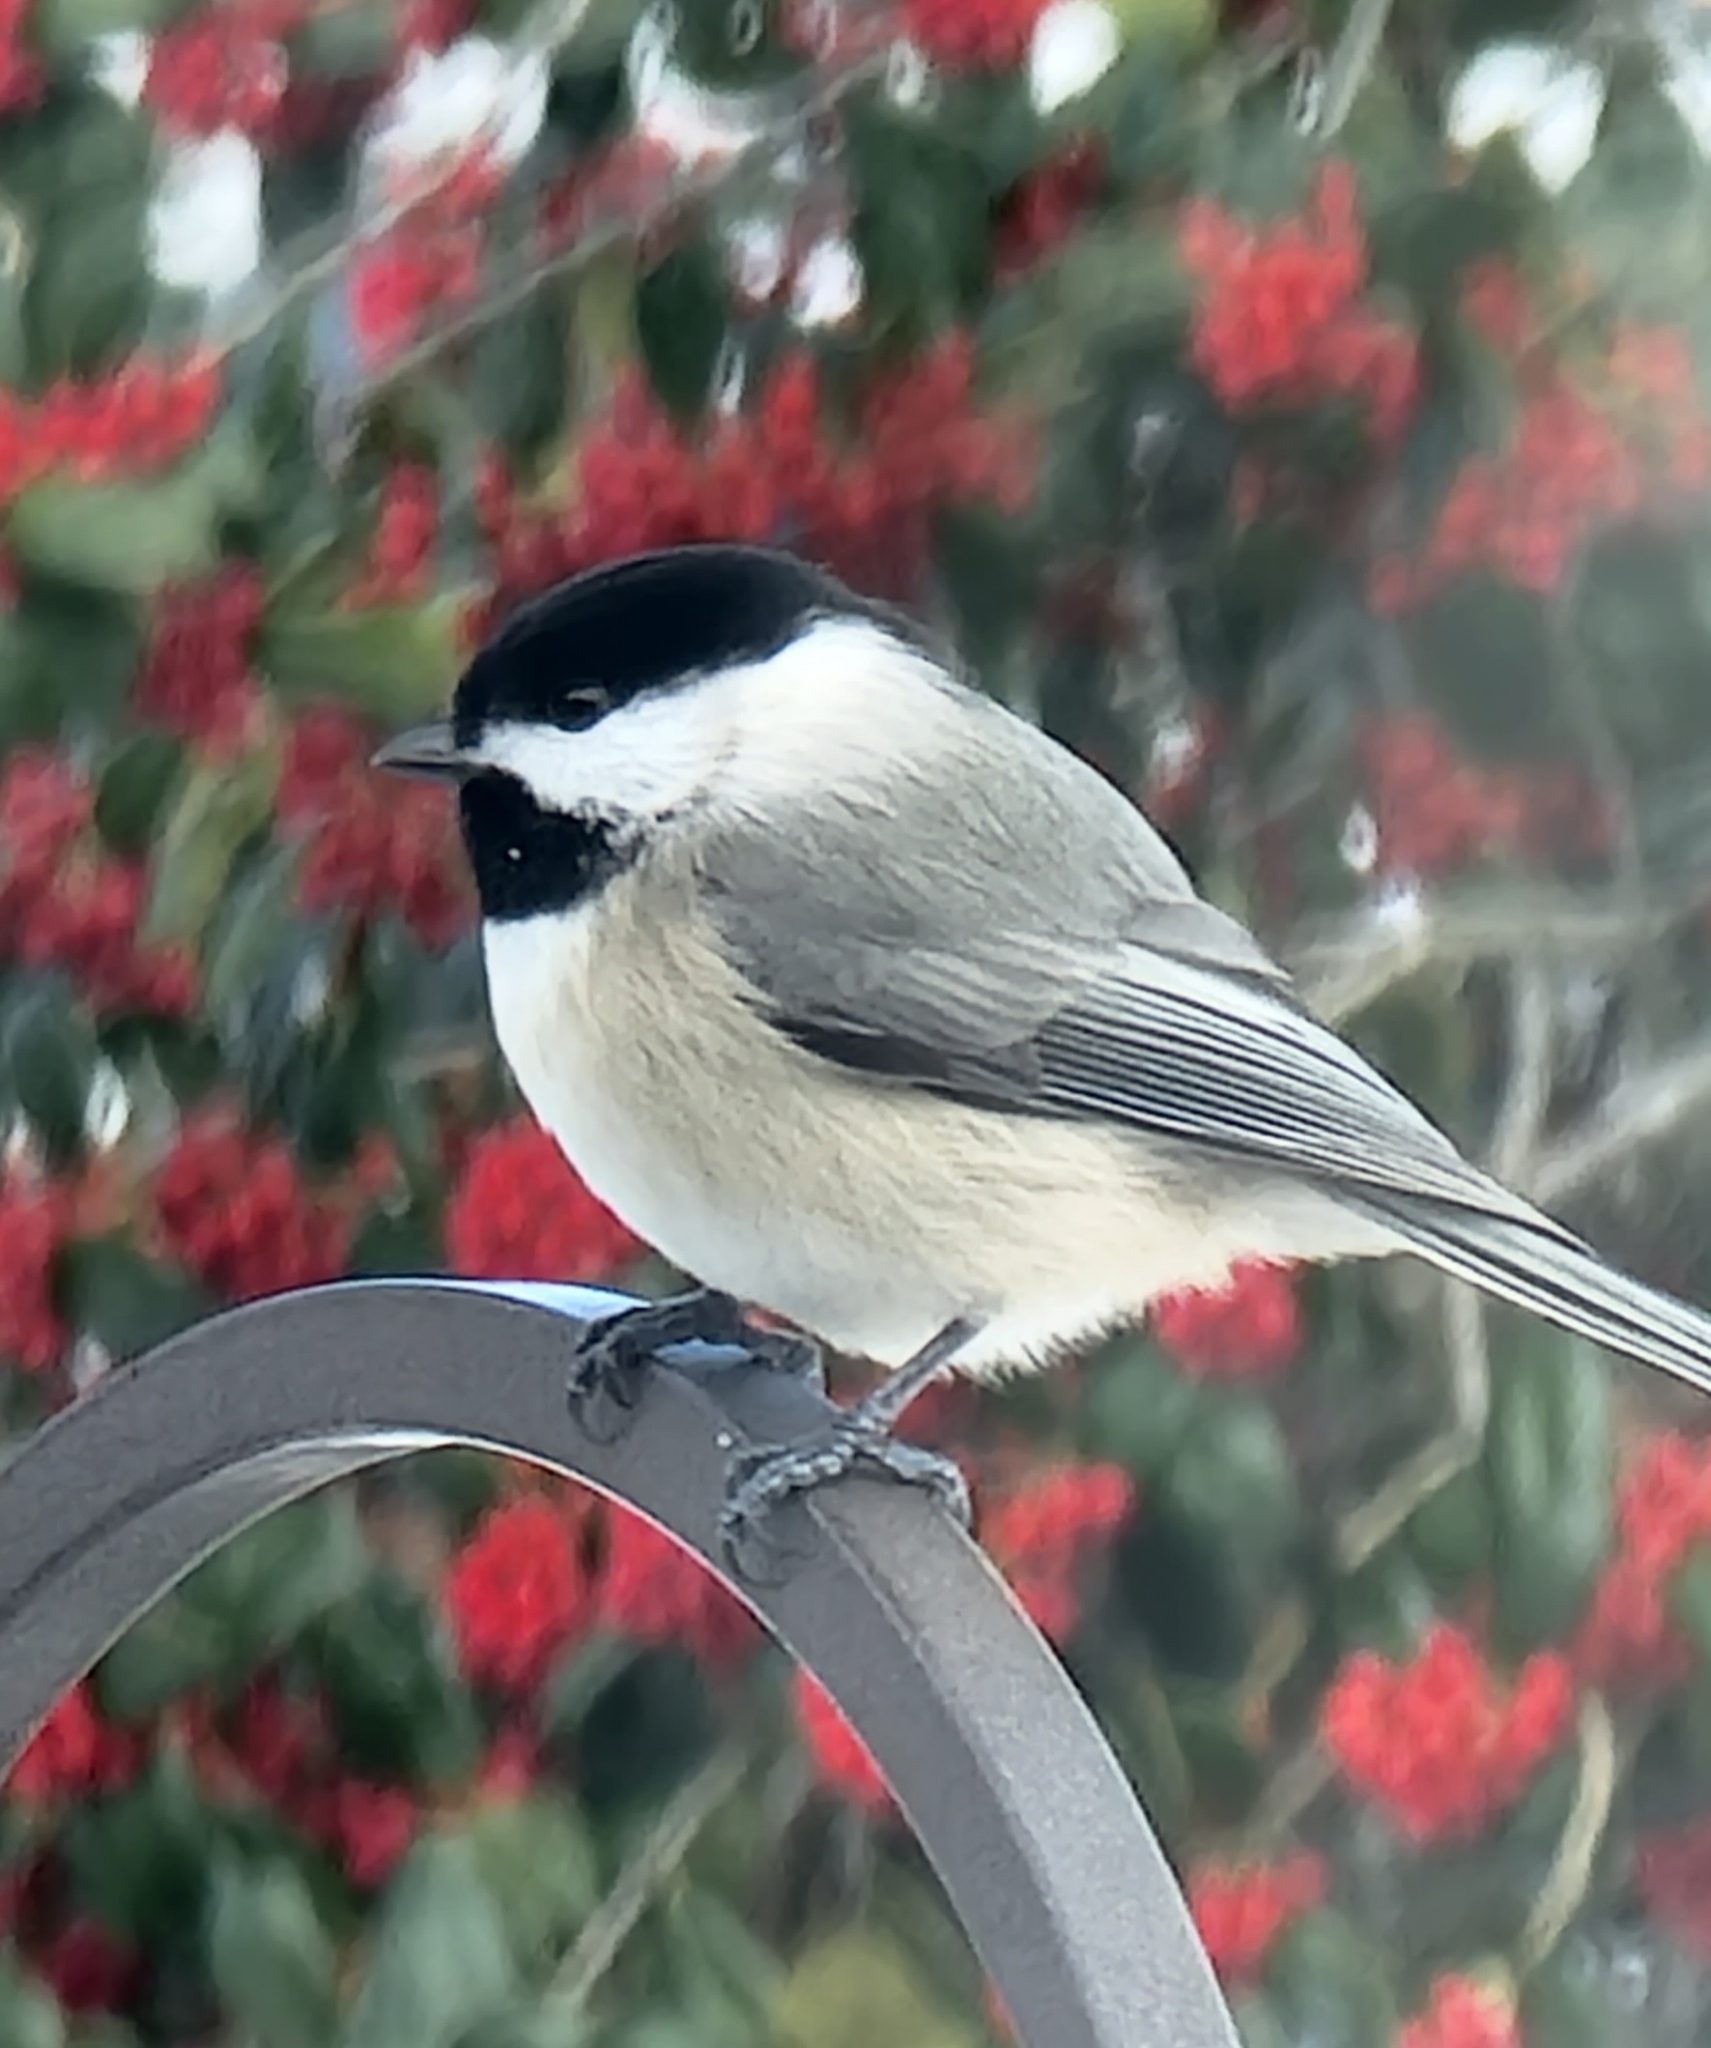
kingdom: Animalia
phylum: Chordata
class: Aves
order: Passeriformes
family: Paridae
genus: Poecile
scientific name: Poecile carolinensis
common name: Carolina chickadee
